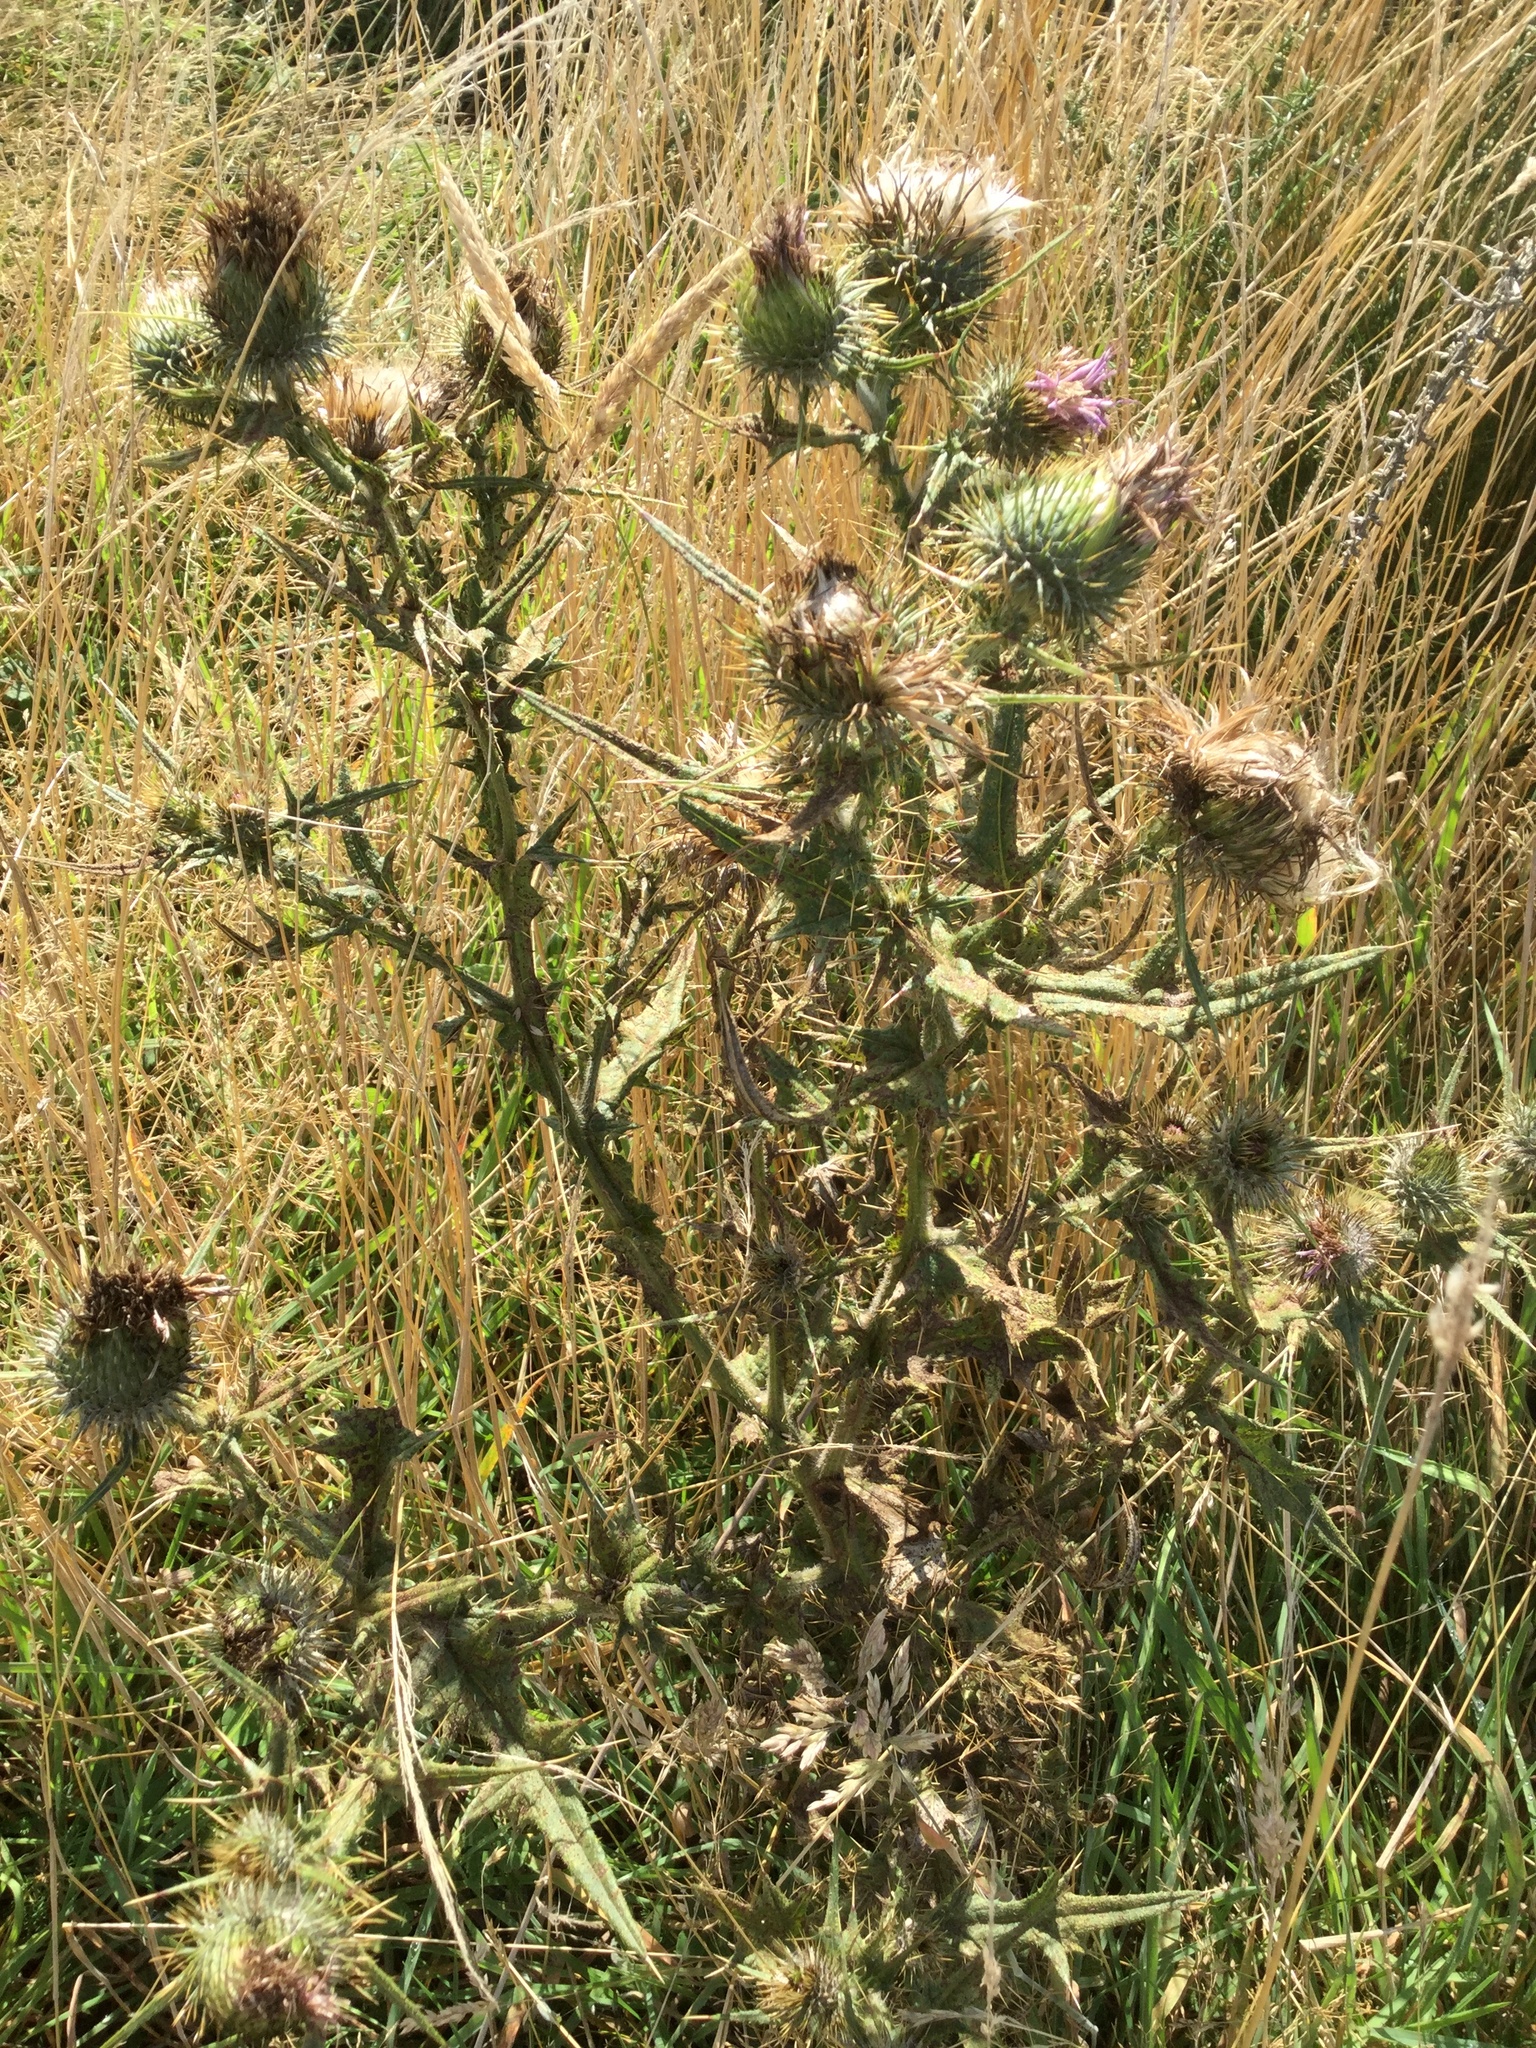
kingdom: Plantae
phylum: Tracheophyta
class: Magnoliopsida
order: Asterales
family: Asteraceae
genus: Cirsium
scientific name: Cirsium vulgare
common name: Bull thistle
